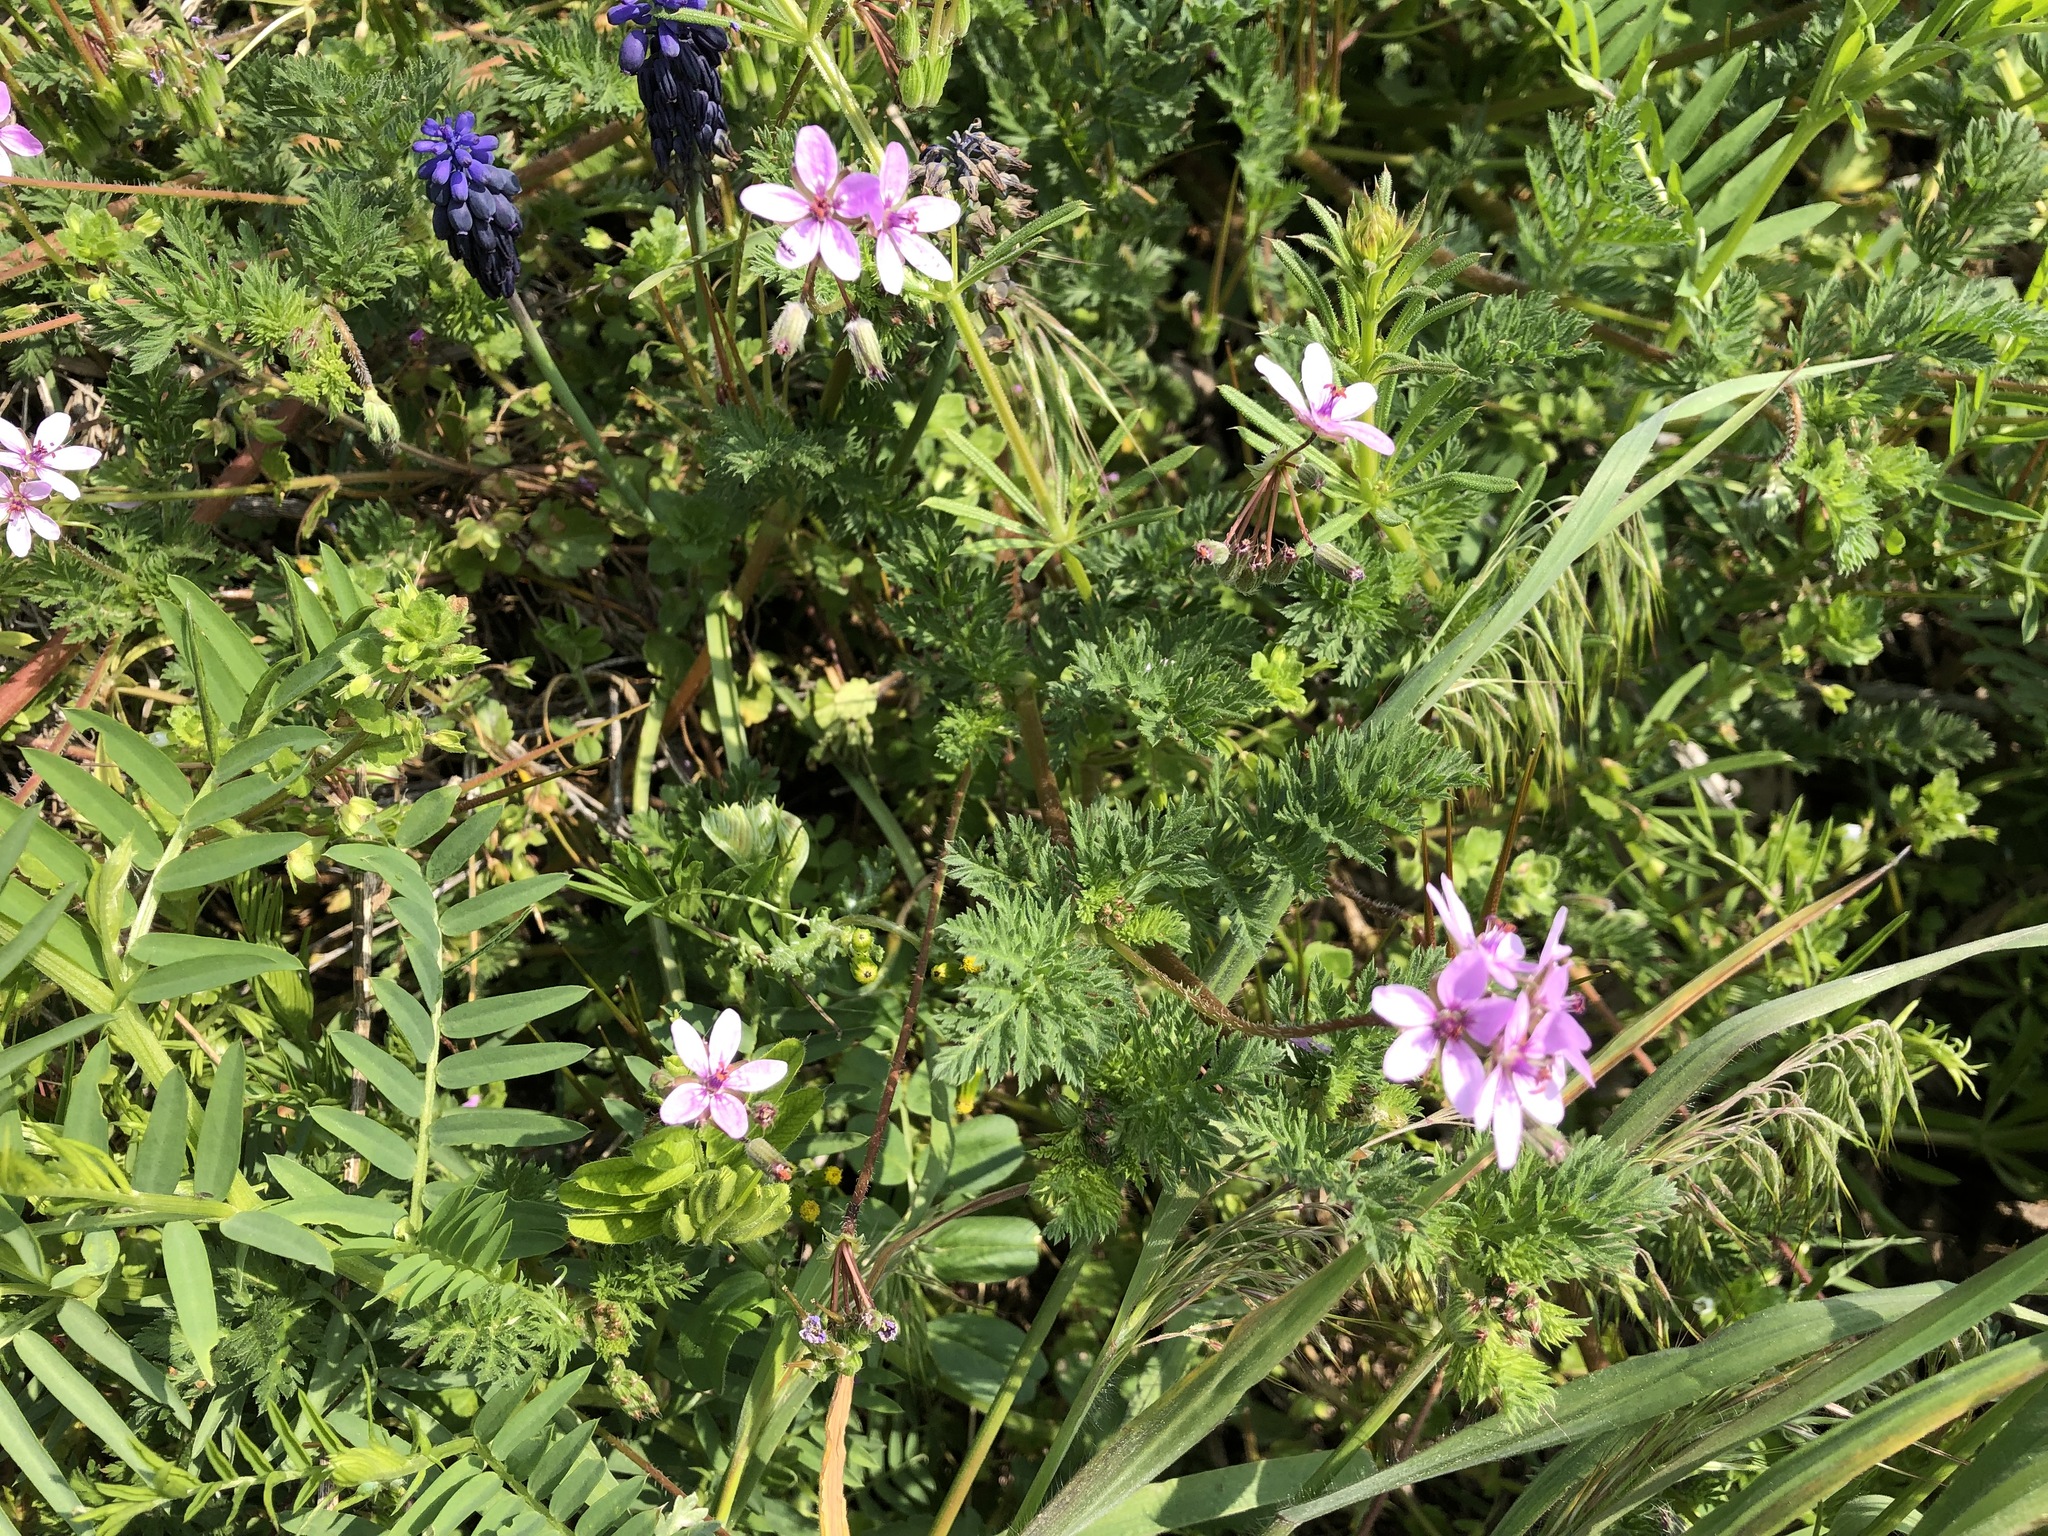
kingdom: Plantae
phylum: Tracheophyta
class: Magnoliopsida
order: Geraniales
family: Geraniaceae
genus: Erodium
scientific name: Erodium cicutarium
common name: Common stork's-bill
